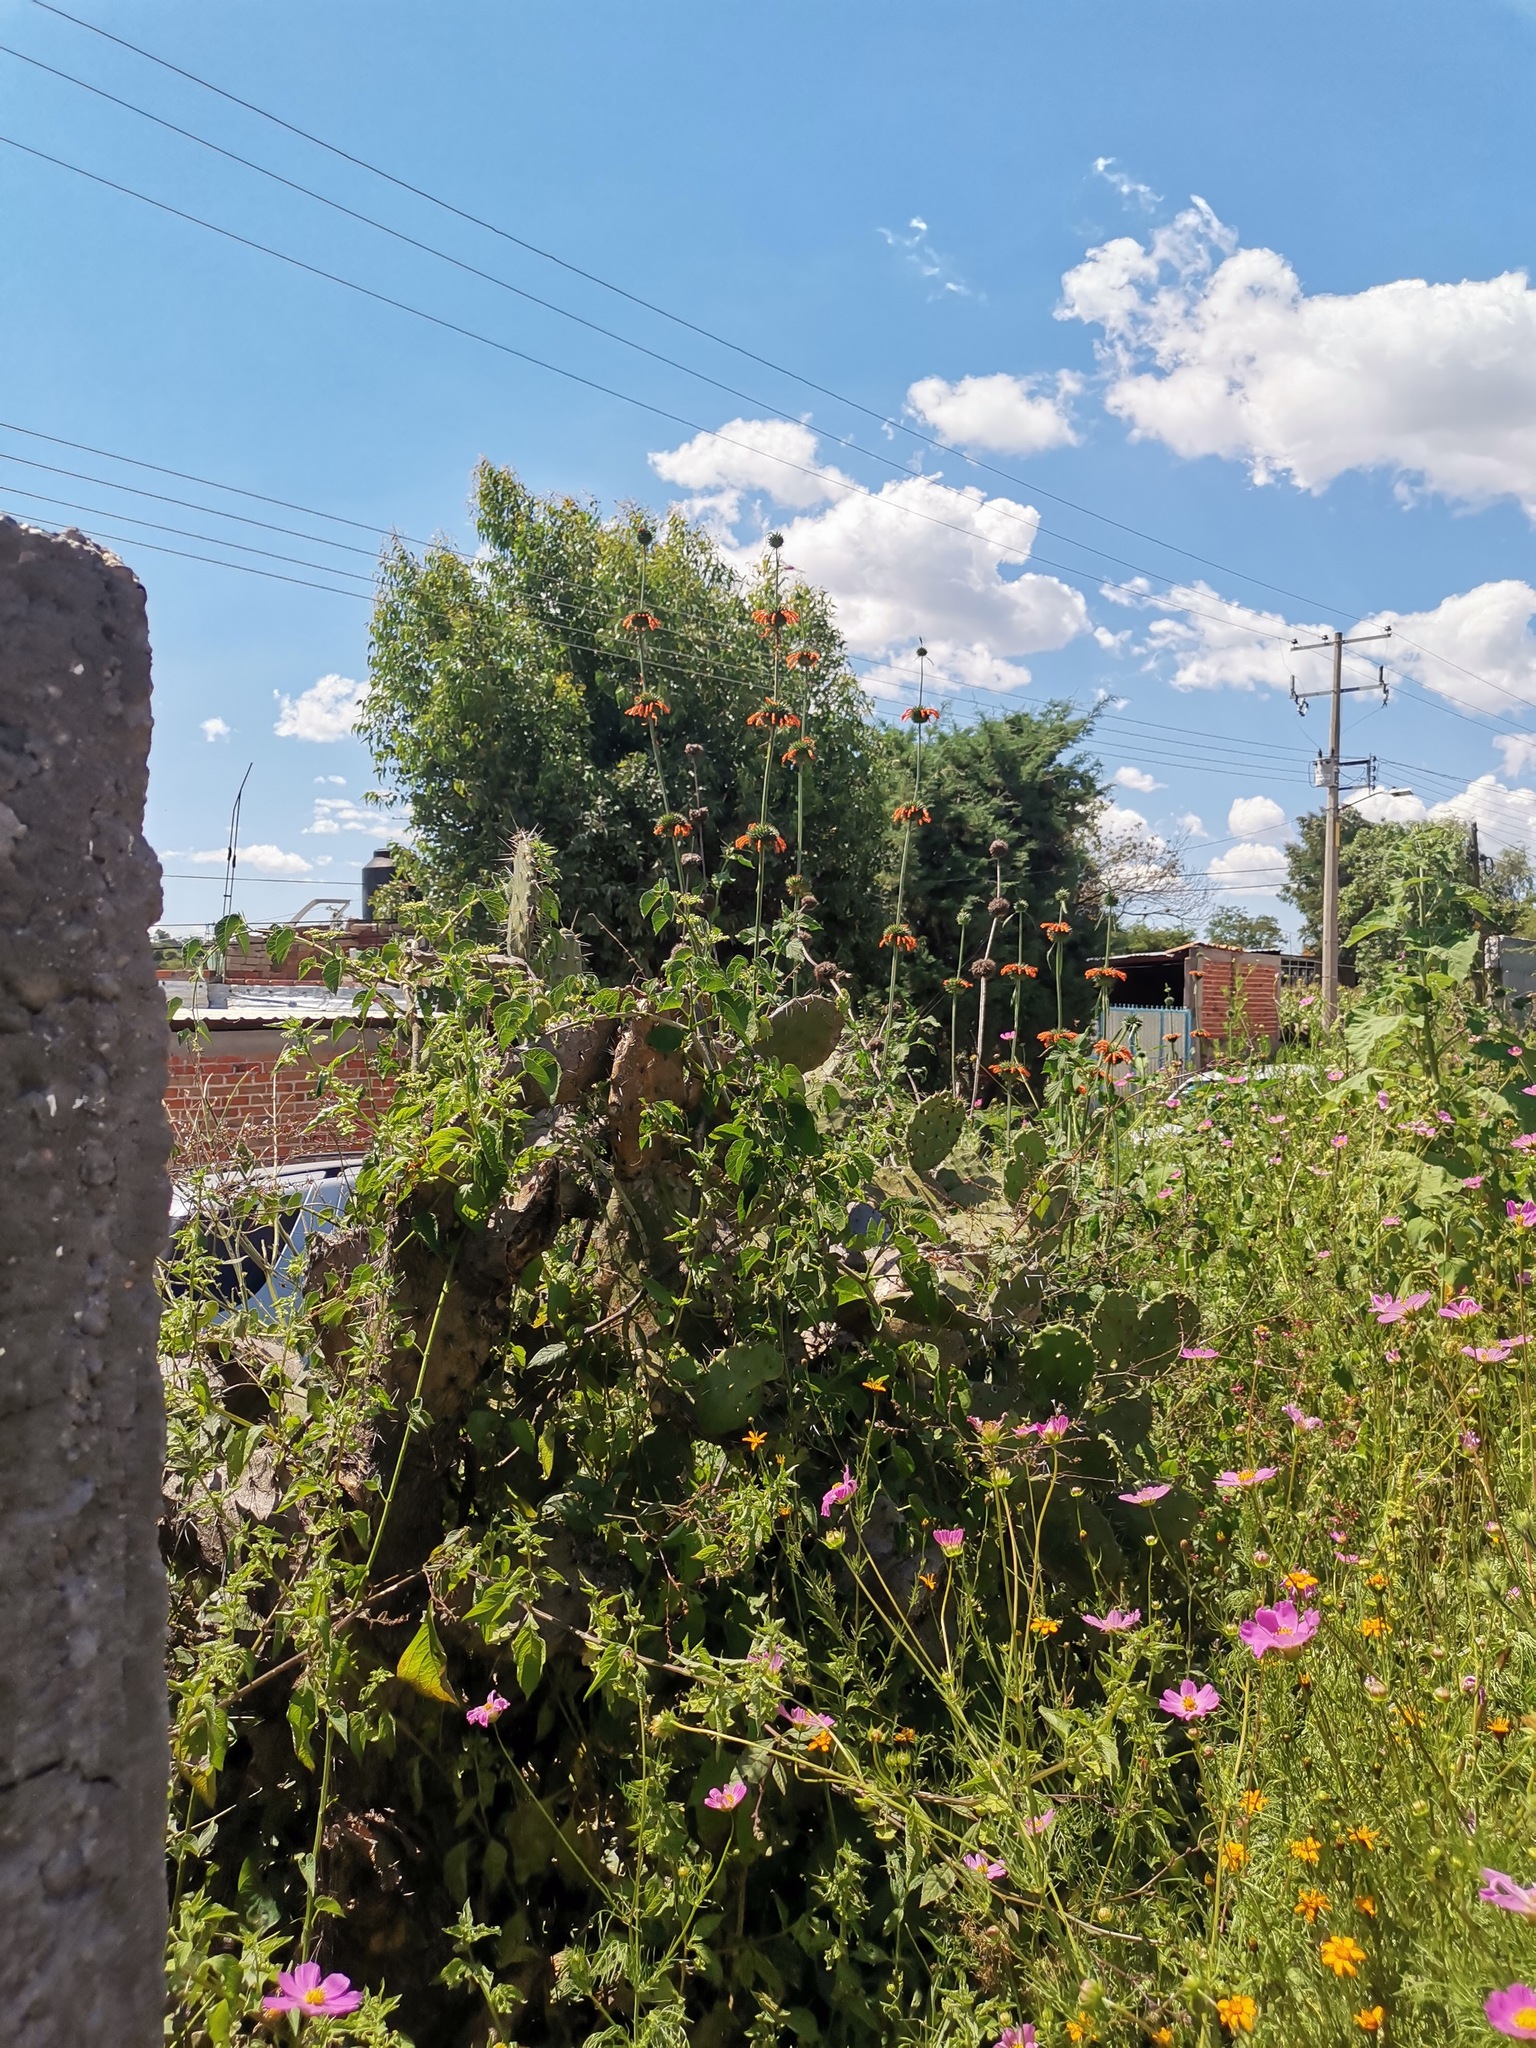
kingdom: Plantae
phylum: Tracheophyta
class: Magnoliopsida
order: Lamiales
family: Lamiaceae
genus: Leonotis
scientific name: Leonotis nepetifolia
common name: Christmas candlestick
